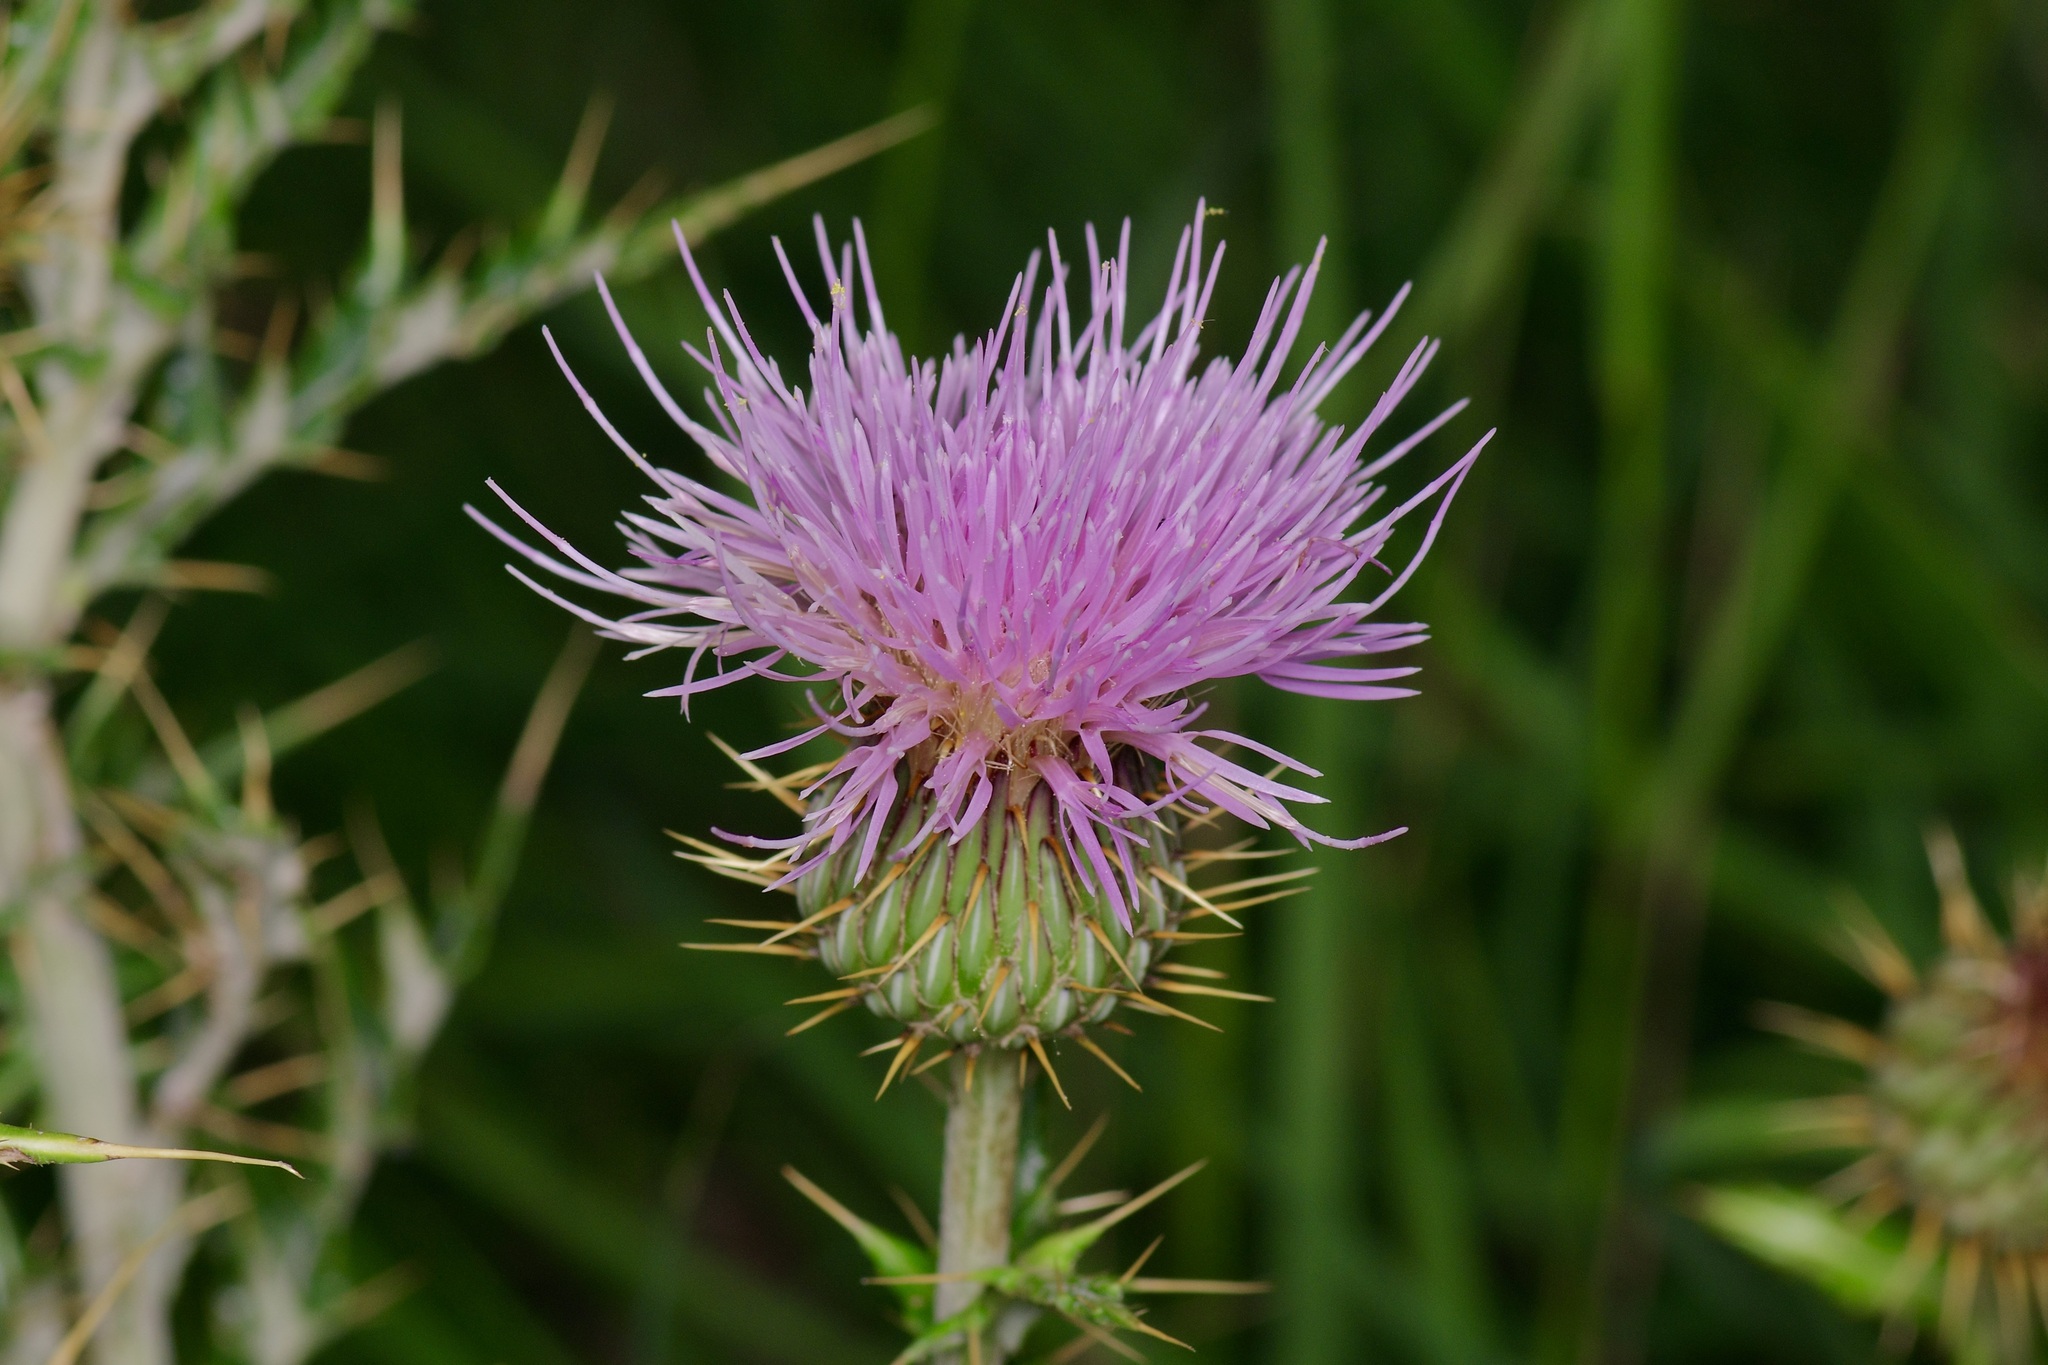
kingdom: Plantae
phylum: Tracheophyta
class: Magnoliopsida
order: Asterales
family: Asteraceae
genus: Cirsium
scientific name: Cirsium ochrocentrum
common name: Yellow-spine thistle
